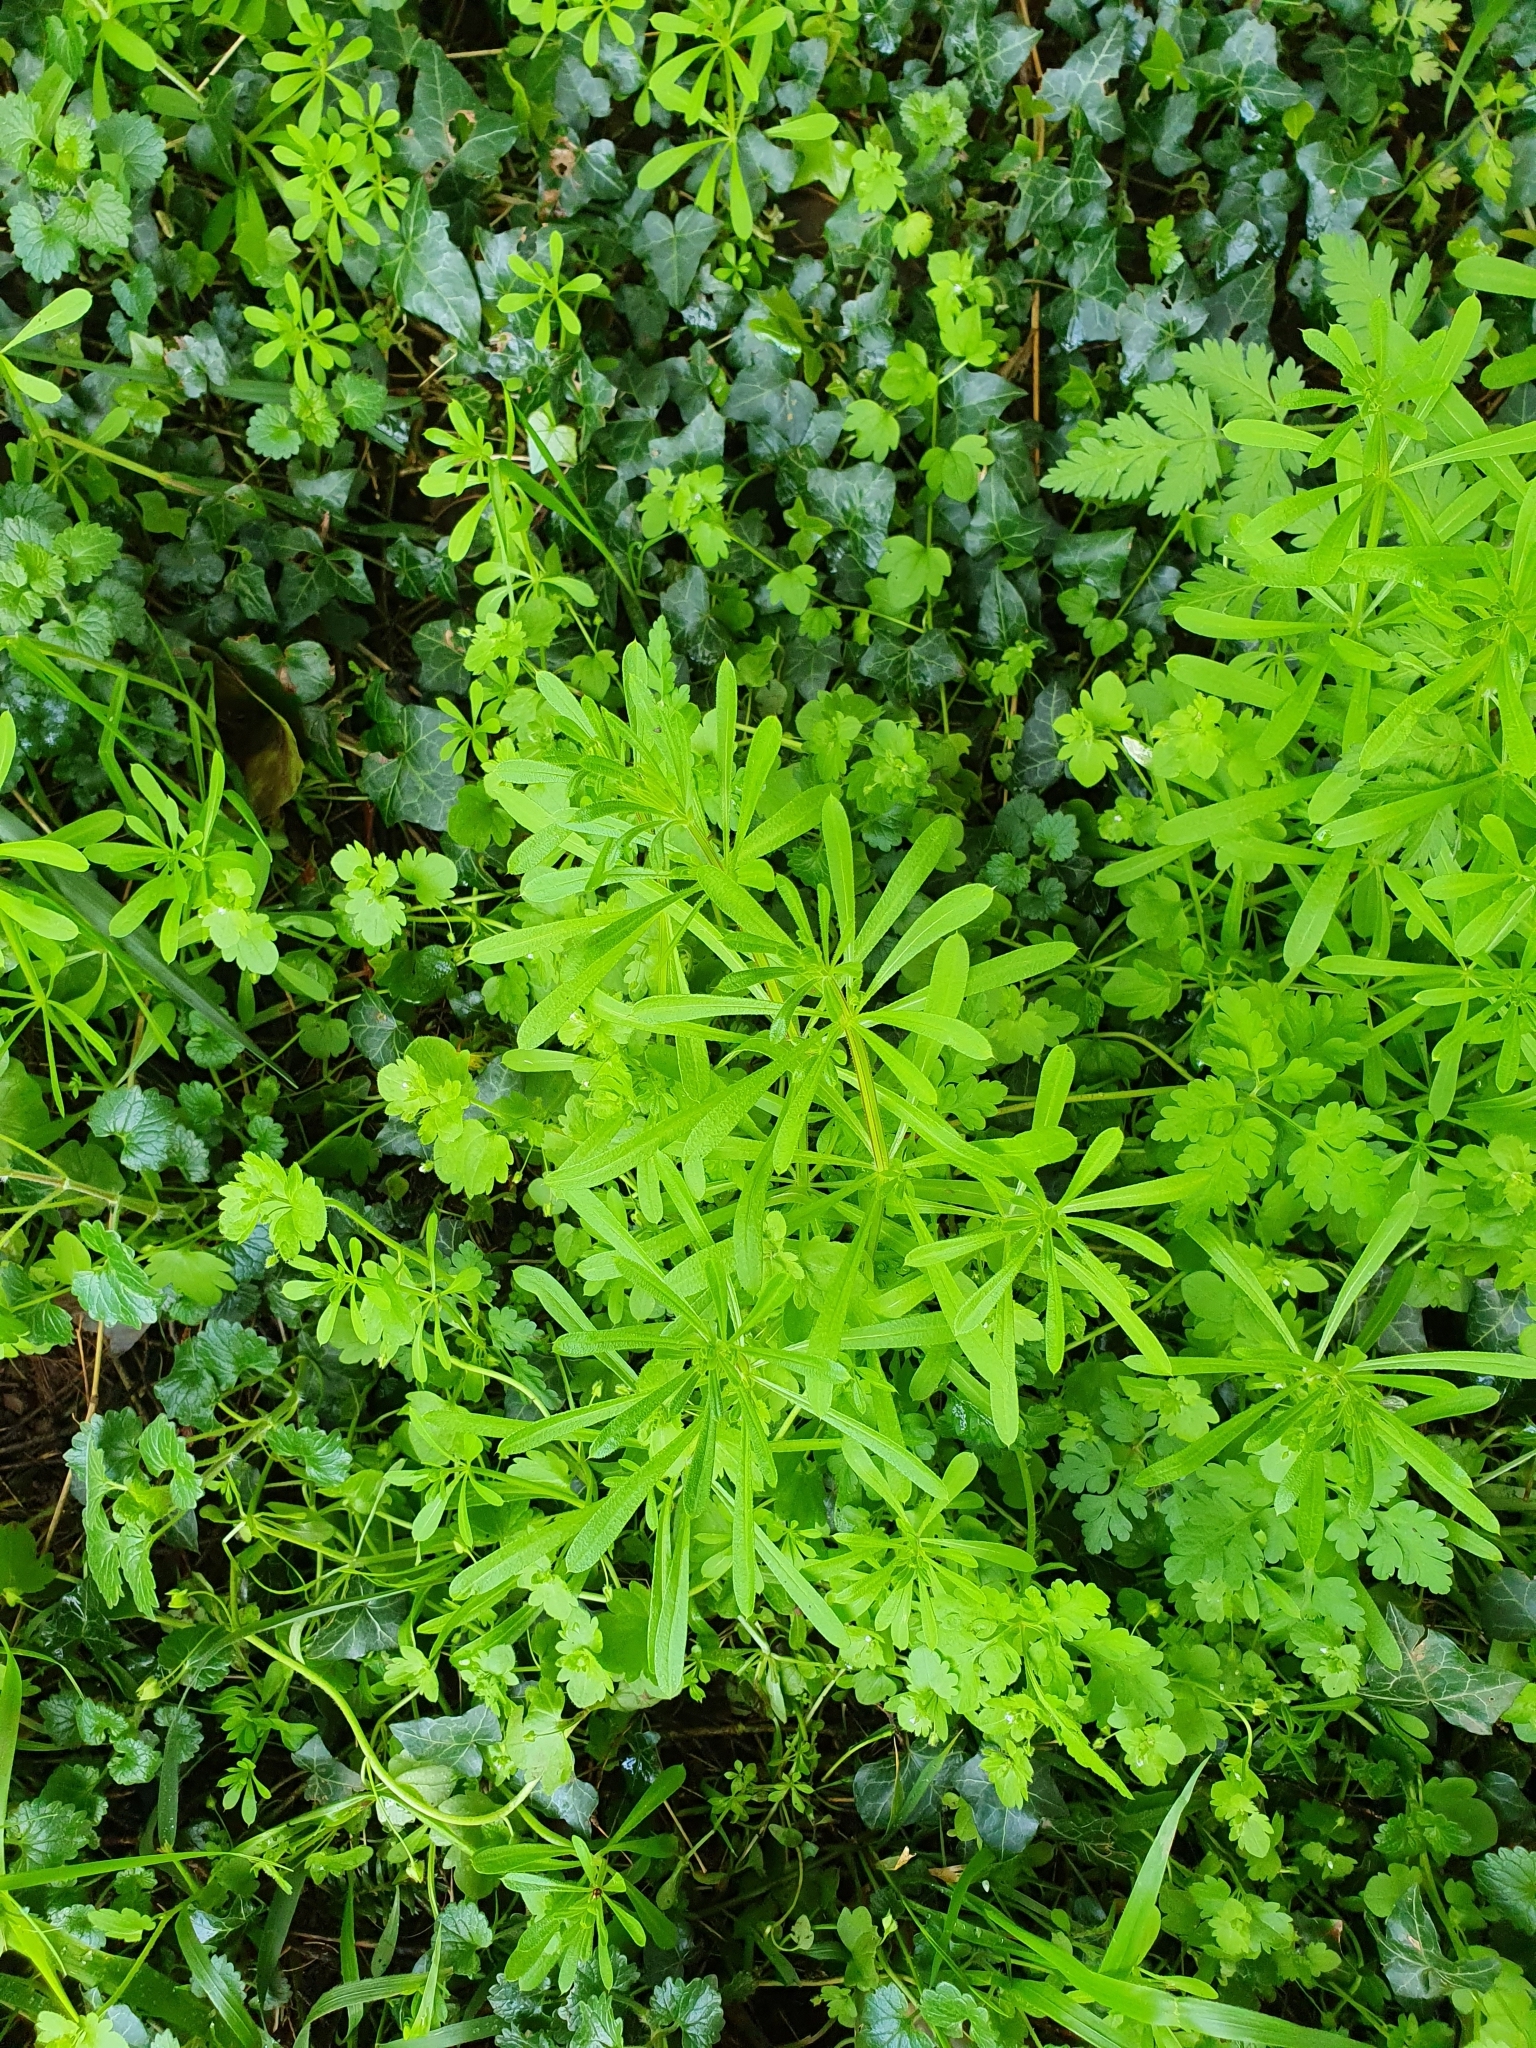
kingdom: Plantae
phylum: Tracheophyta
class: Magnoliopsida
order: Gentianales
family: Rubiaceae
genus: Galium
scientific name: Galium aparine
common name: Cleavers
